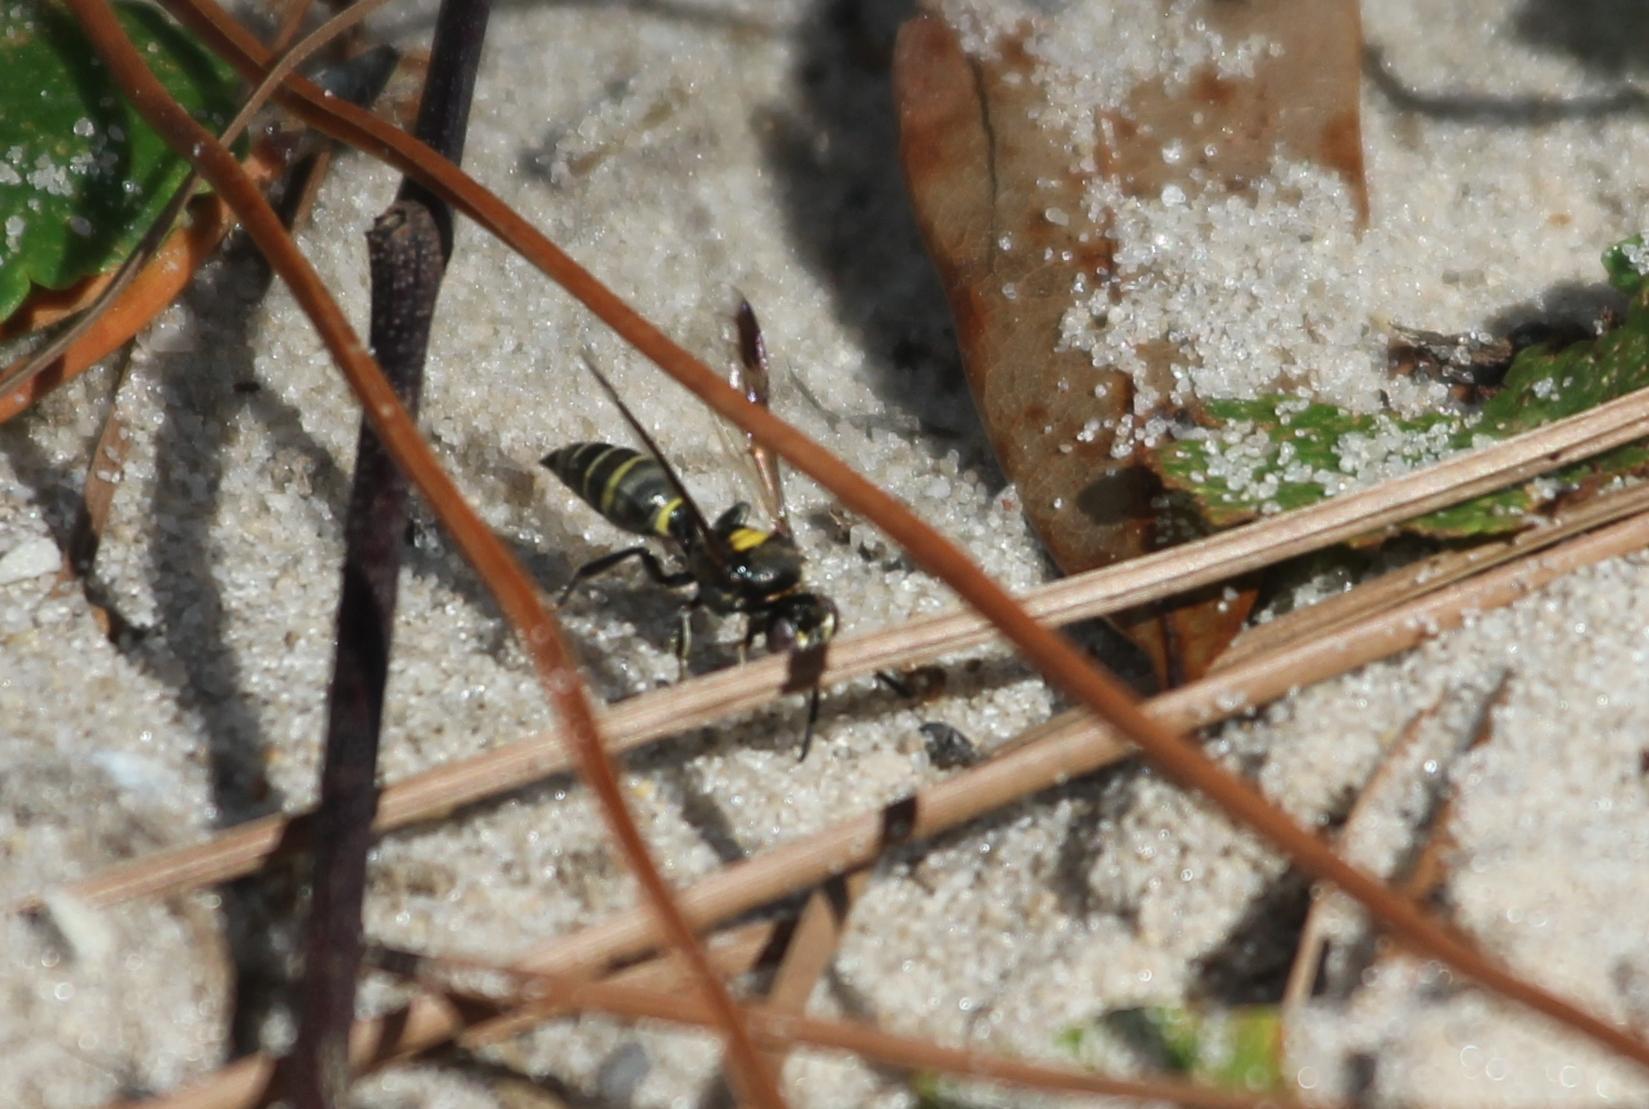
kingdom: Animalia
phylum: Arthropoda
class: Insecta
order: Hymenoptera
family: Crabronidae
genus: Hoplisoides
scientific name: Hoplisoides semipunctatus
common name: Sphecid wasp
